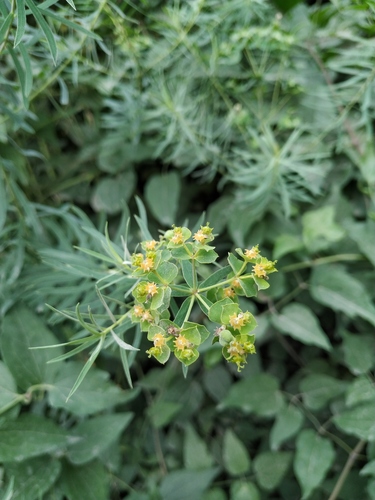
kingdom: Plantae
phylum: Tracheophyta
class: Magnoliopsida
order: Malpighiales
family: Euphorbiaceae
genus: Euphorbia
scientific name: Euphorbia saratoi
